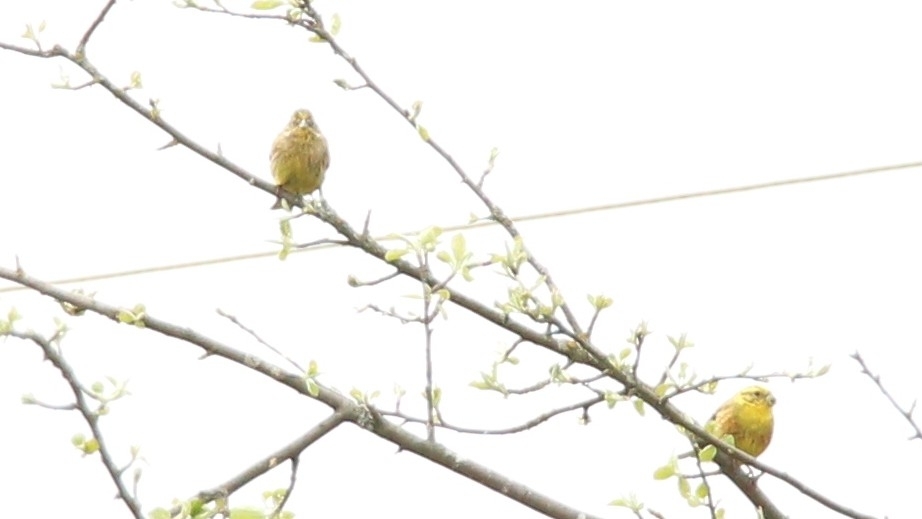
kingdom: Animalia
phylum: Chordata
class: Aves
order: Passeriformes
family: Emberizidae
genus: Emberiza
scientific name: Emberiza citrinella
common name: Yellowhammer
